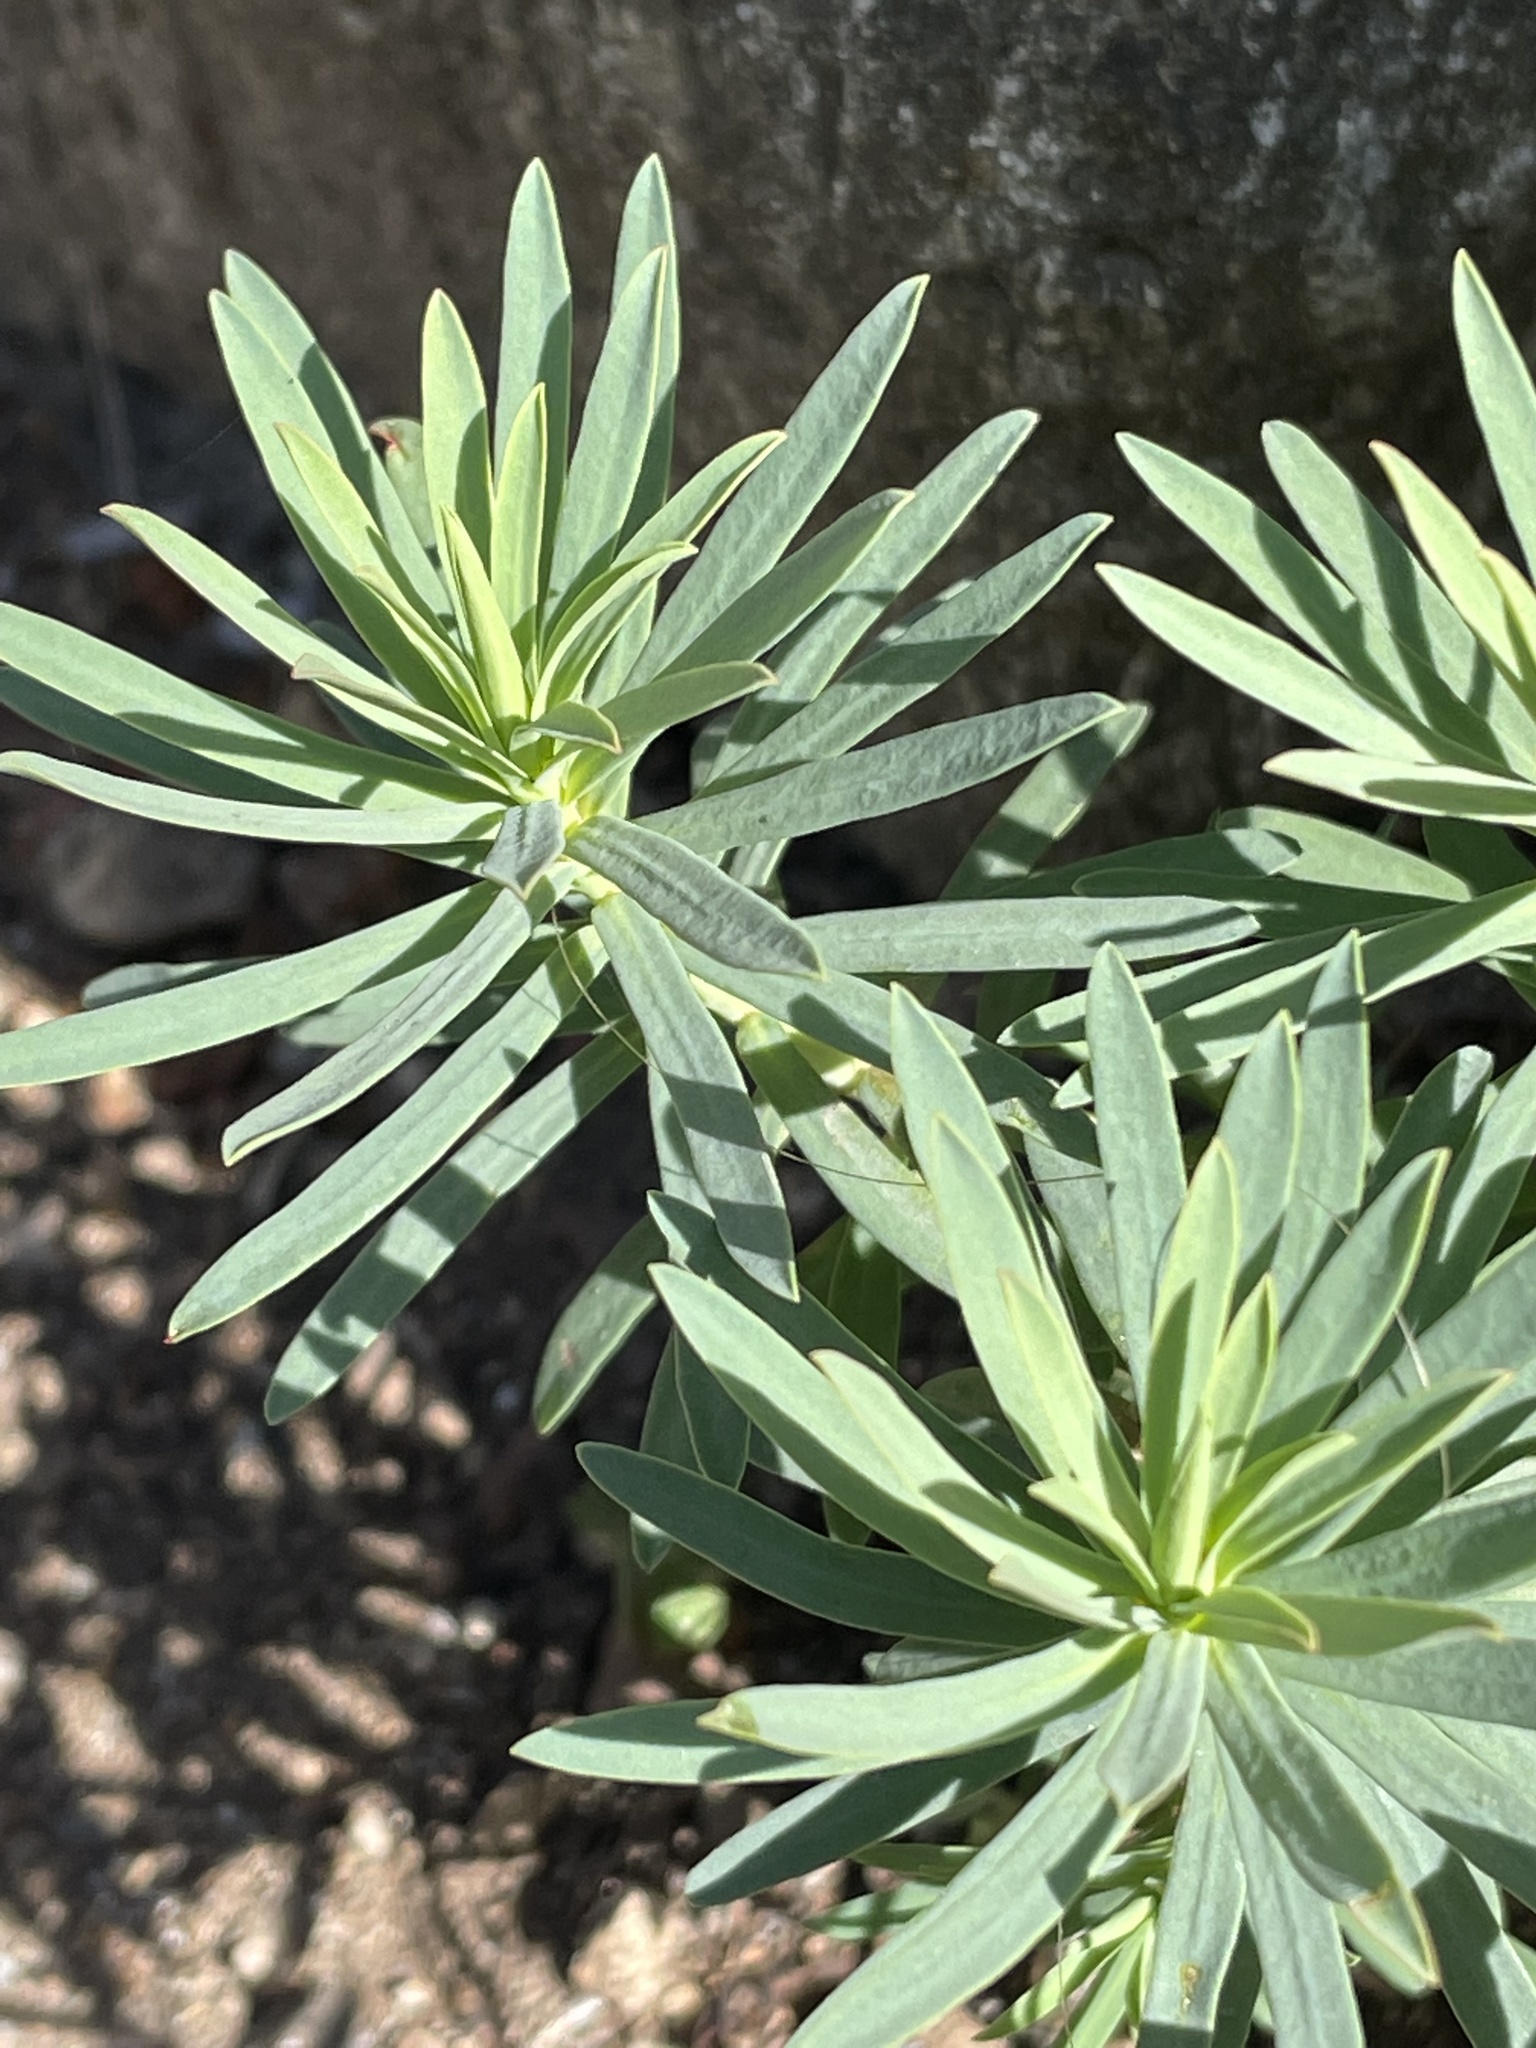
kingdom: Plantae
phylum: Tracheophyta
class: Magnoliopsida
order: Malpighiales
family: Euphorbiaceae
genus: Euphorbia
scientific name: Euphorbia segetalis
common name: Corn spurge
